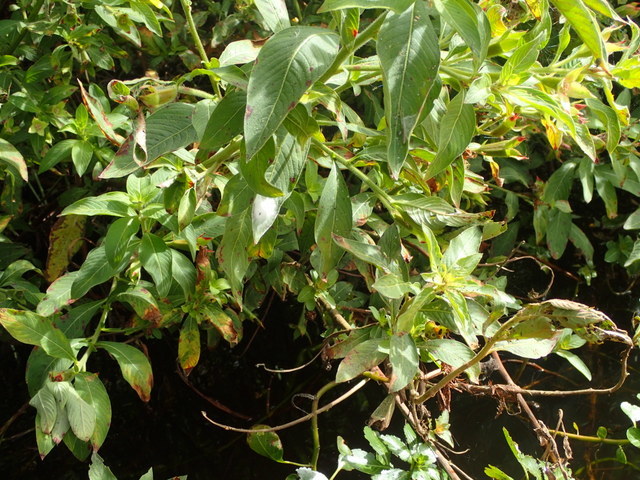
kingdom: Plantae
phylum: Tracheophyta
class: Magnoliopsida
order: Myrtales
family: Onagraceae
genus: Ludwigia
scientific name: Ludwigia peruviana
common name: Peruvian primrose-willow
